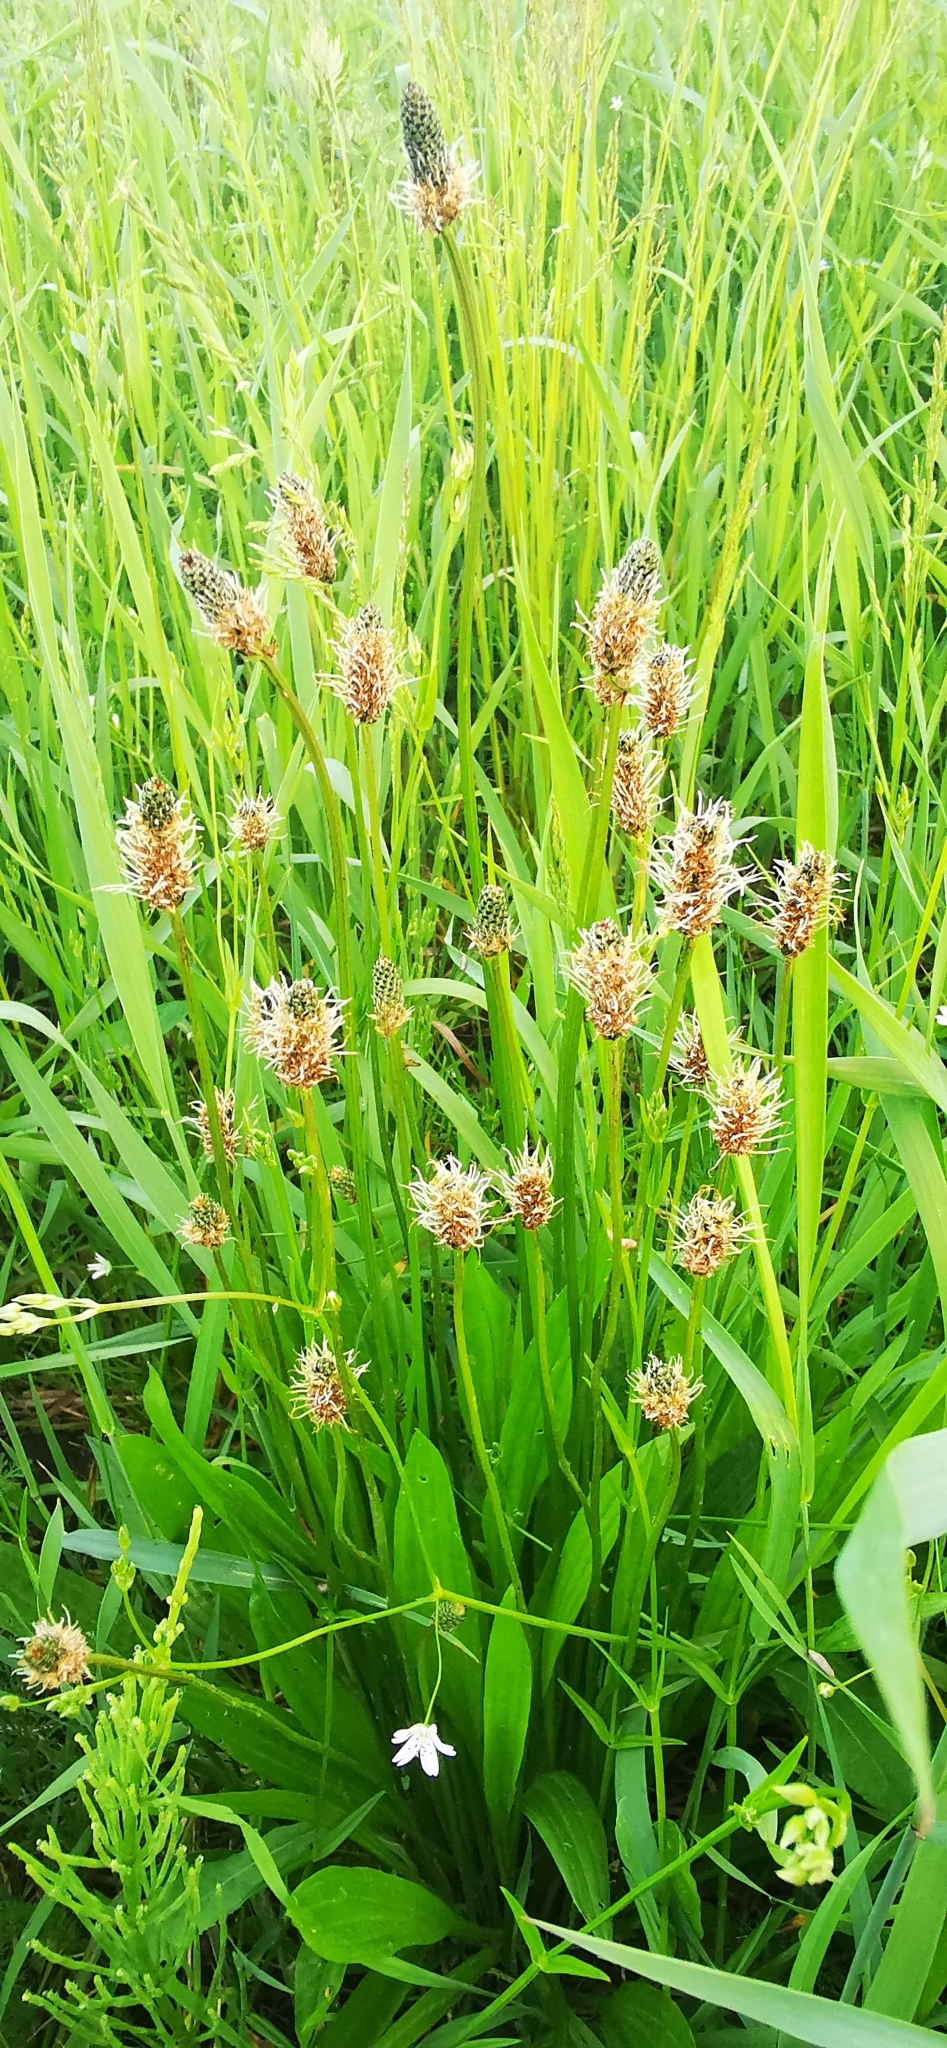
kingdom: Plantae
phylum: Tracheophyta
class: Magnoliopsida
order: Lamiales
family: Plantaginaceae
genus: Plantago
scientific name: Plantago lanceolata
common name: Ribwort plantain
